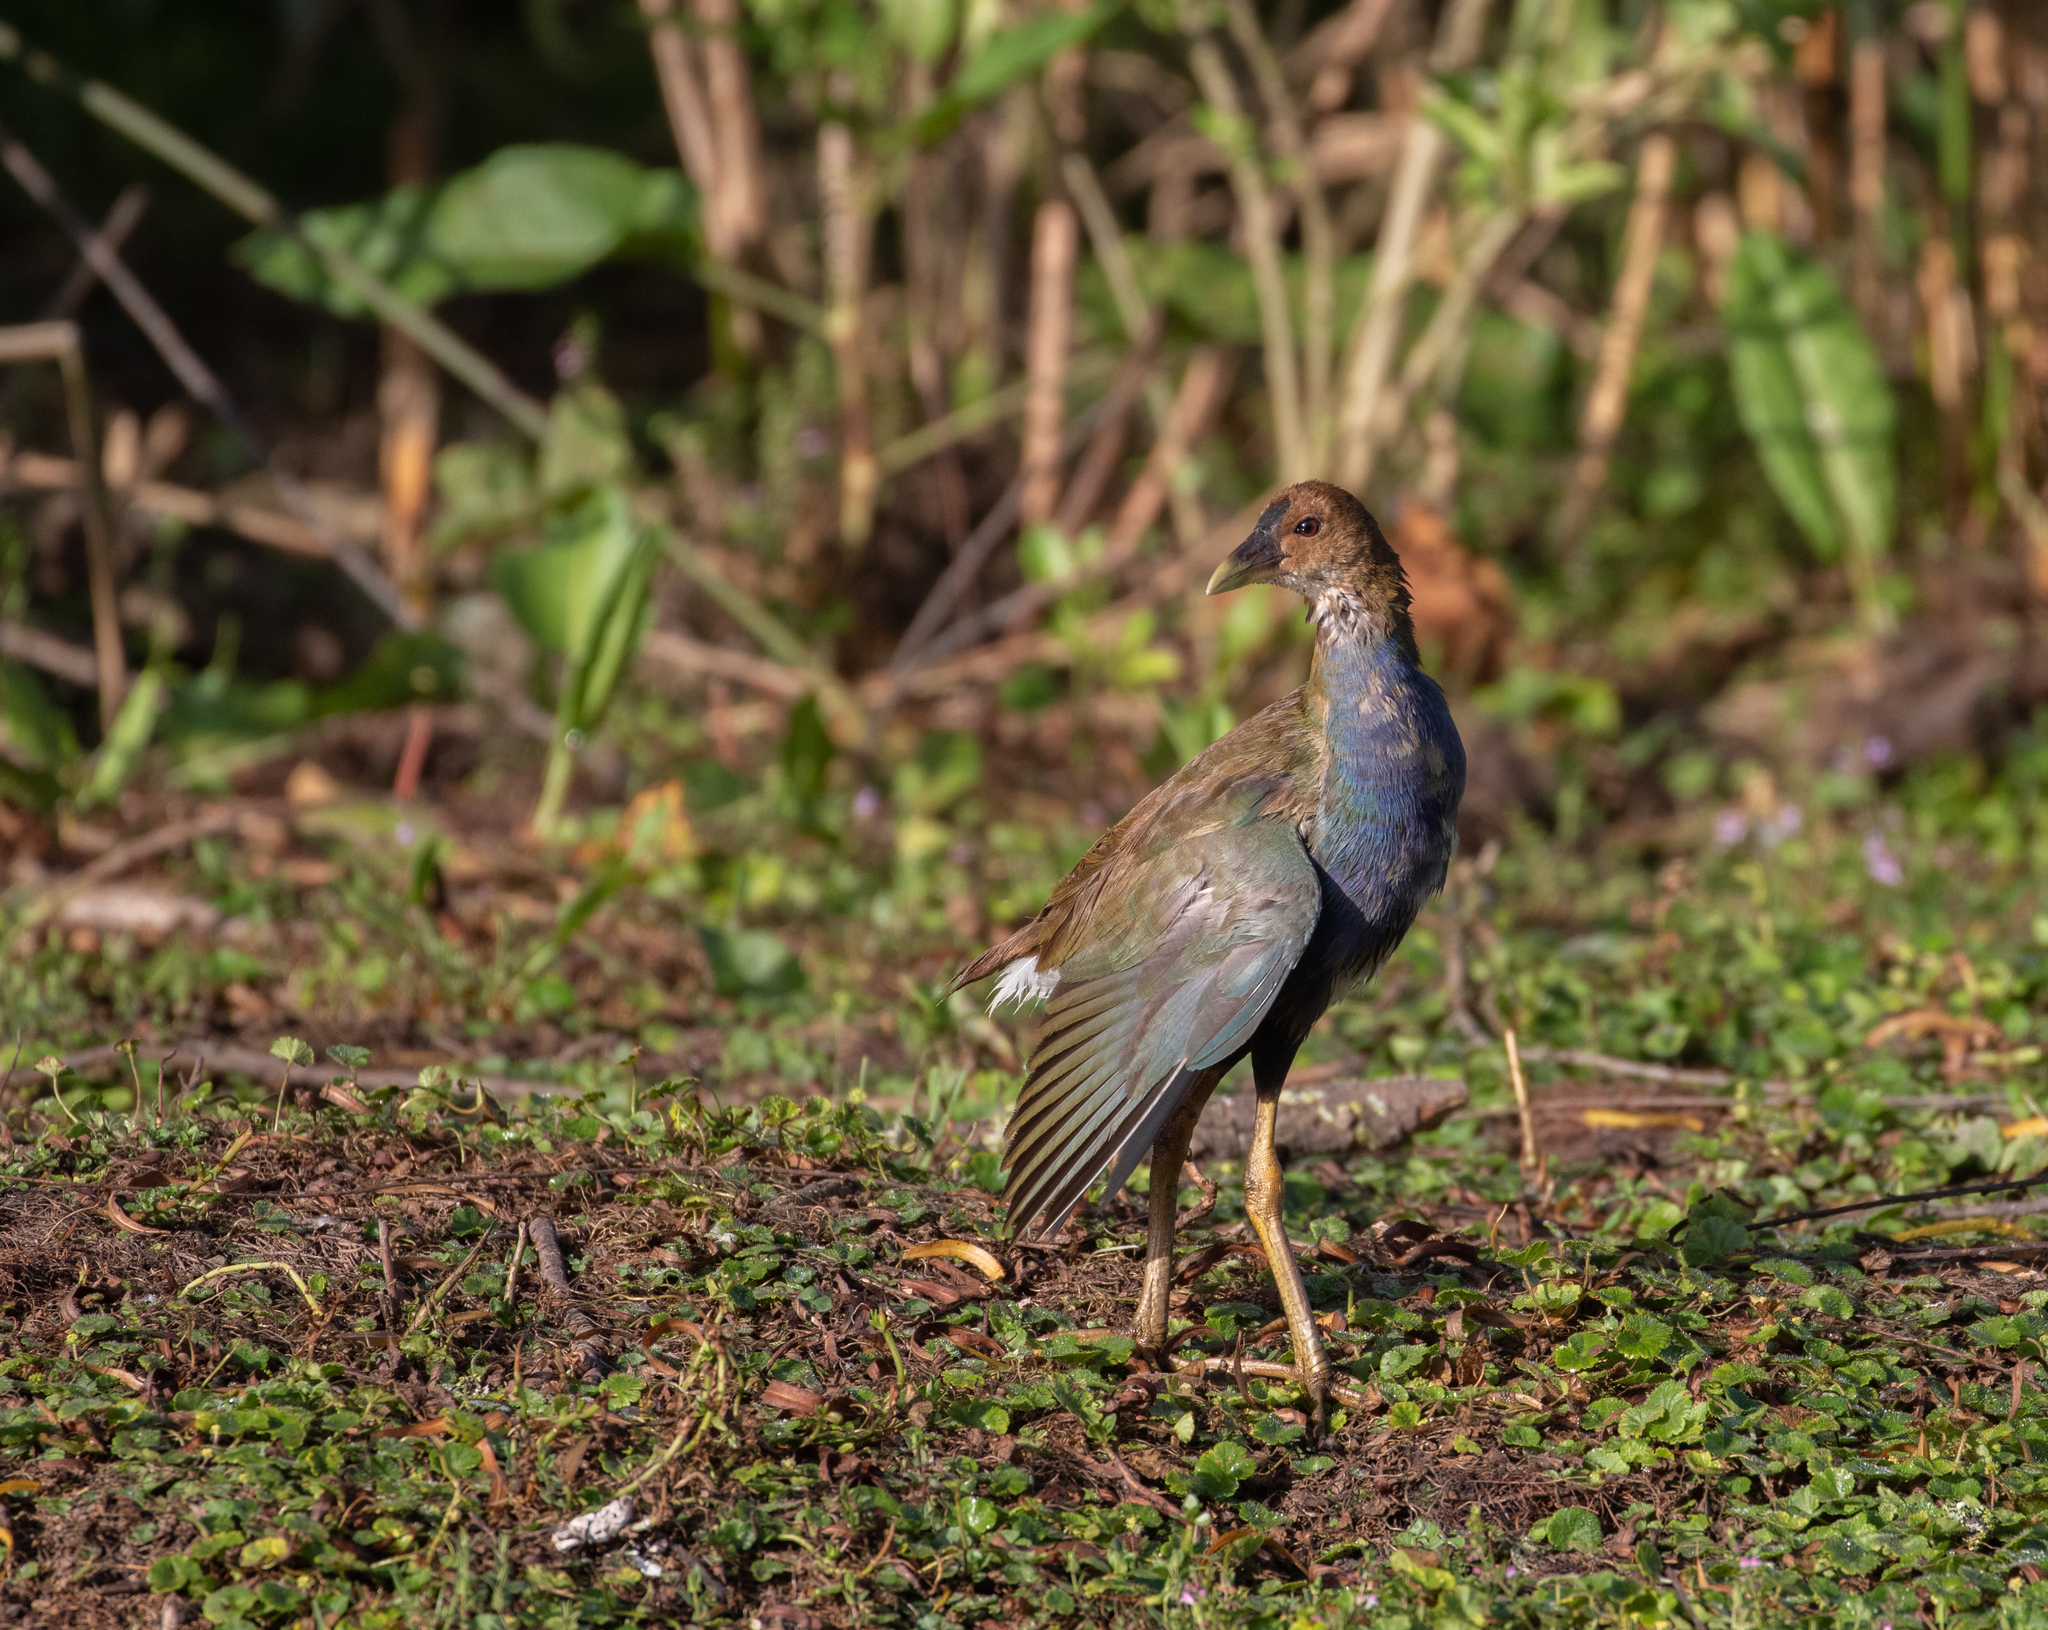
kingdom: Animalia
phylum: Chordata
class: Aves
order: Gruiformes
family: Rallidae
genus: Porphyrio
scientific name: Porphyrio martinica
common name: Purple gallinule
